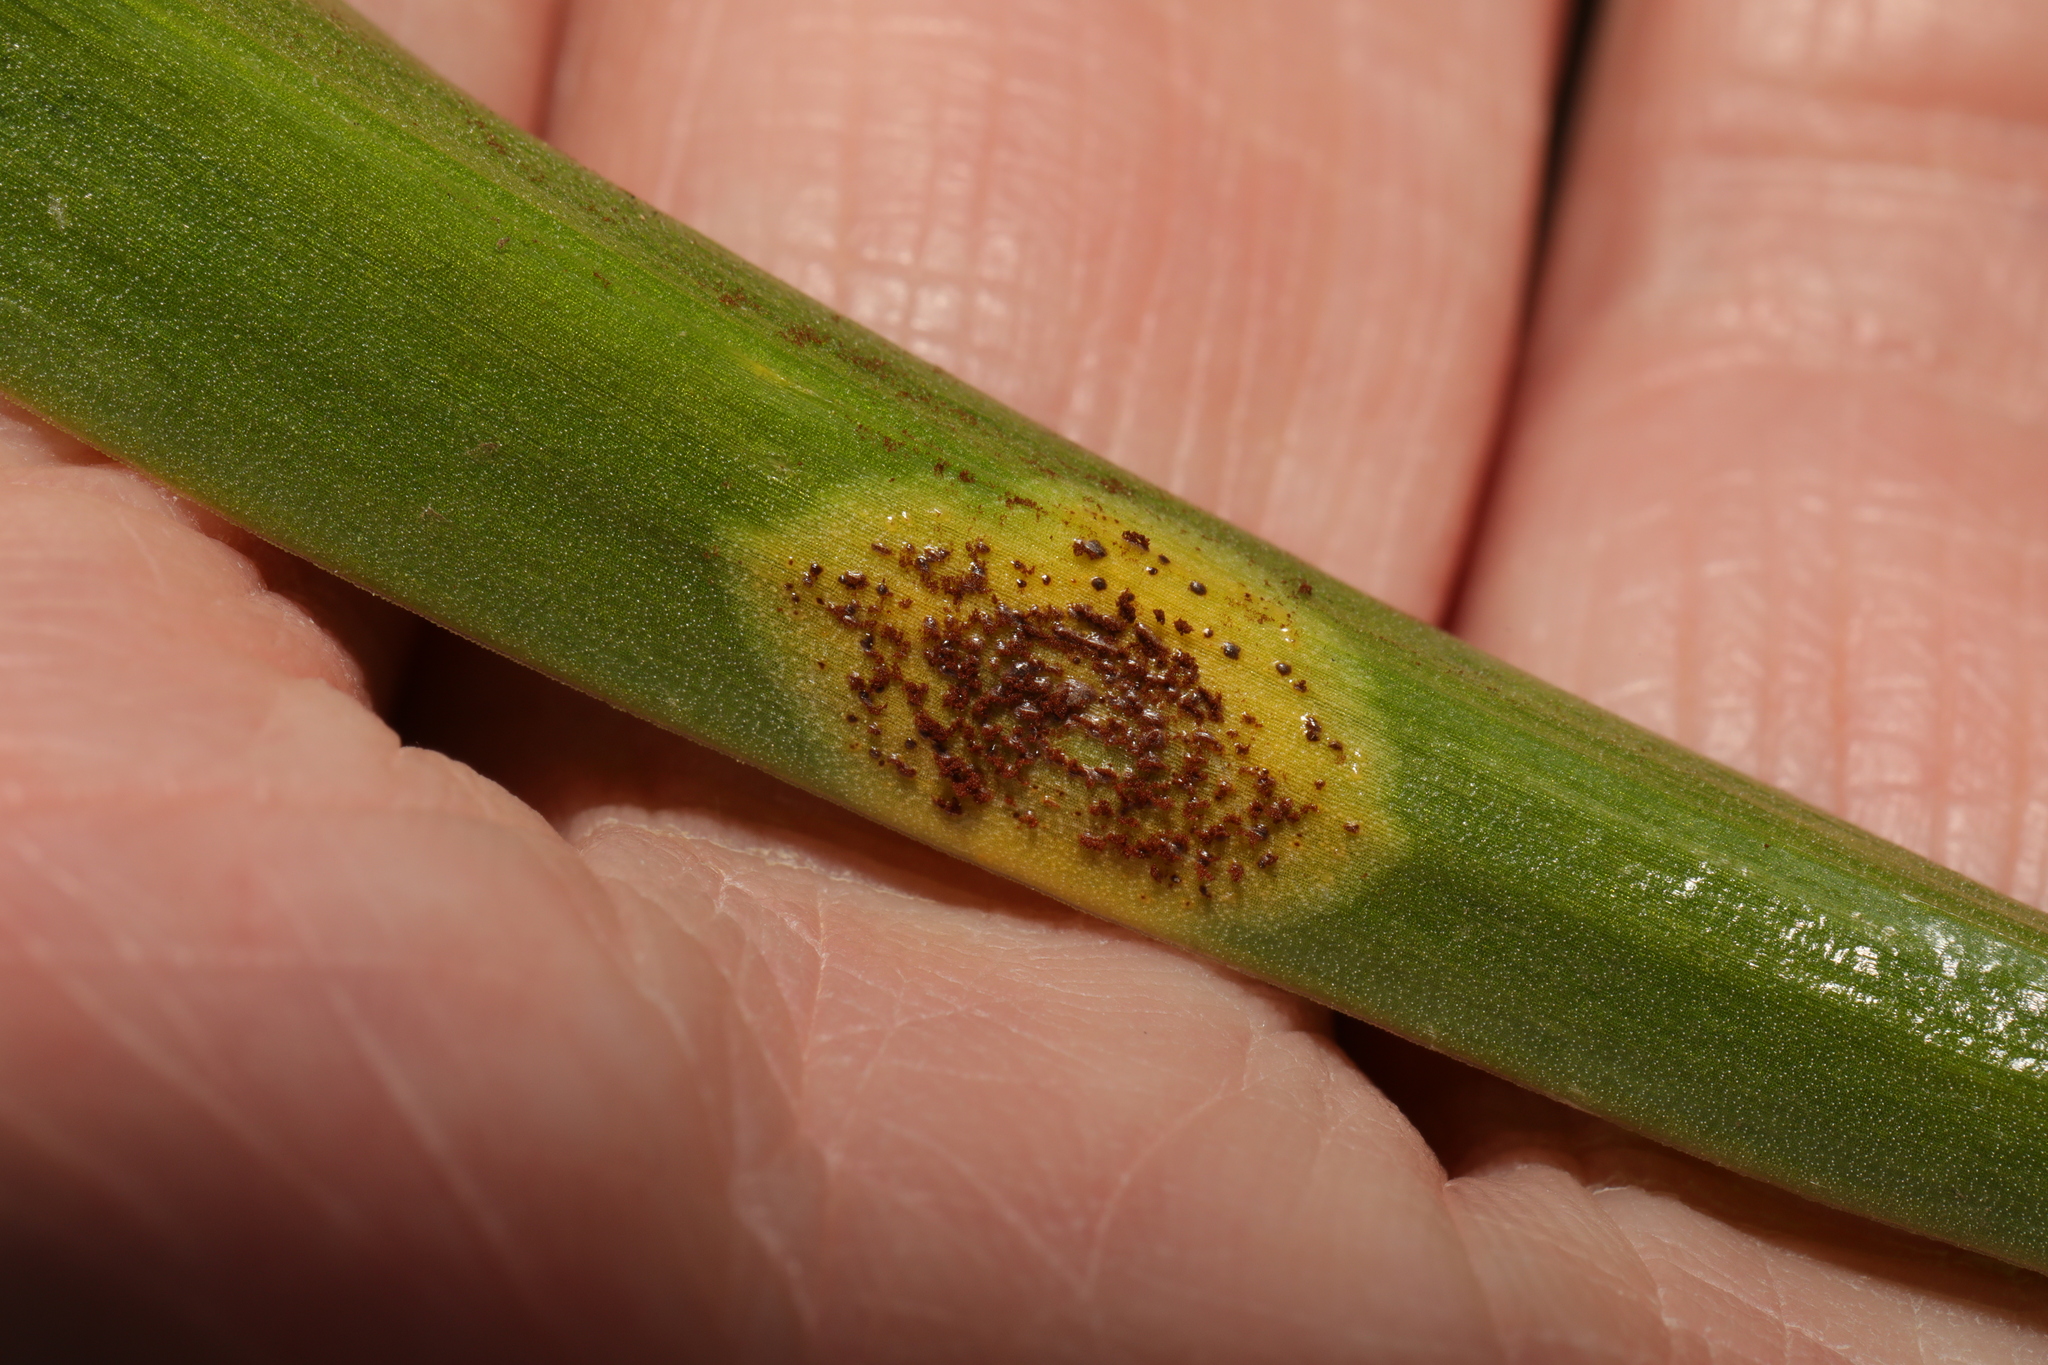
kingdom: Fungi
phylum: Basidiomycota
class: Pucciniomycetes
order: Pucciniales
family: Pucciniaceae
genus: Uromyces
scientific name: Uromyces hyacinthi
